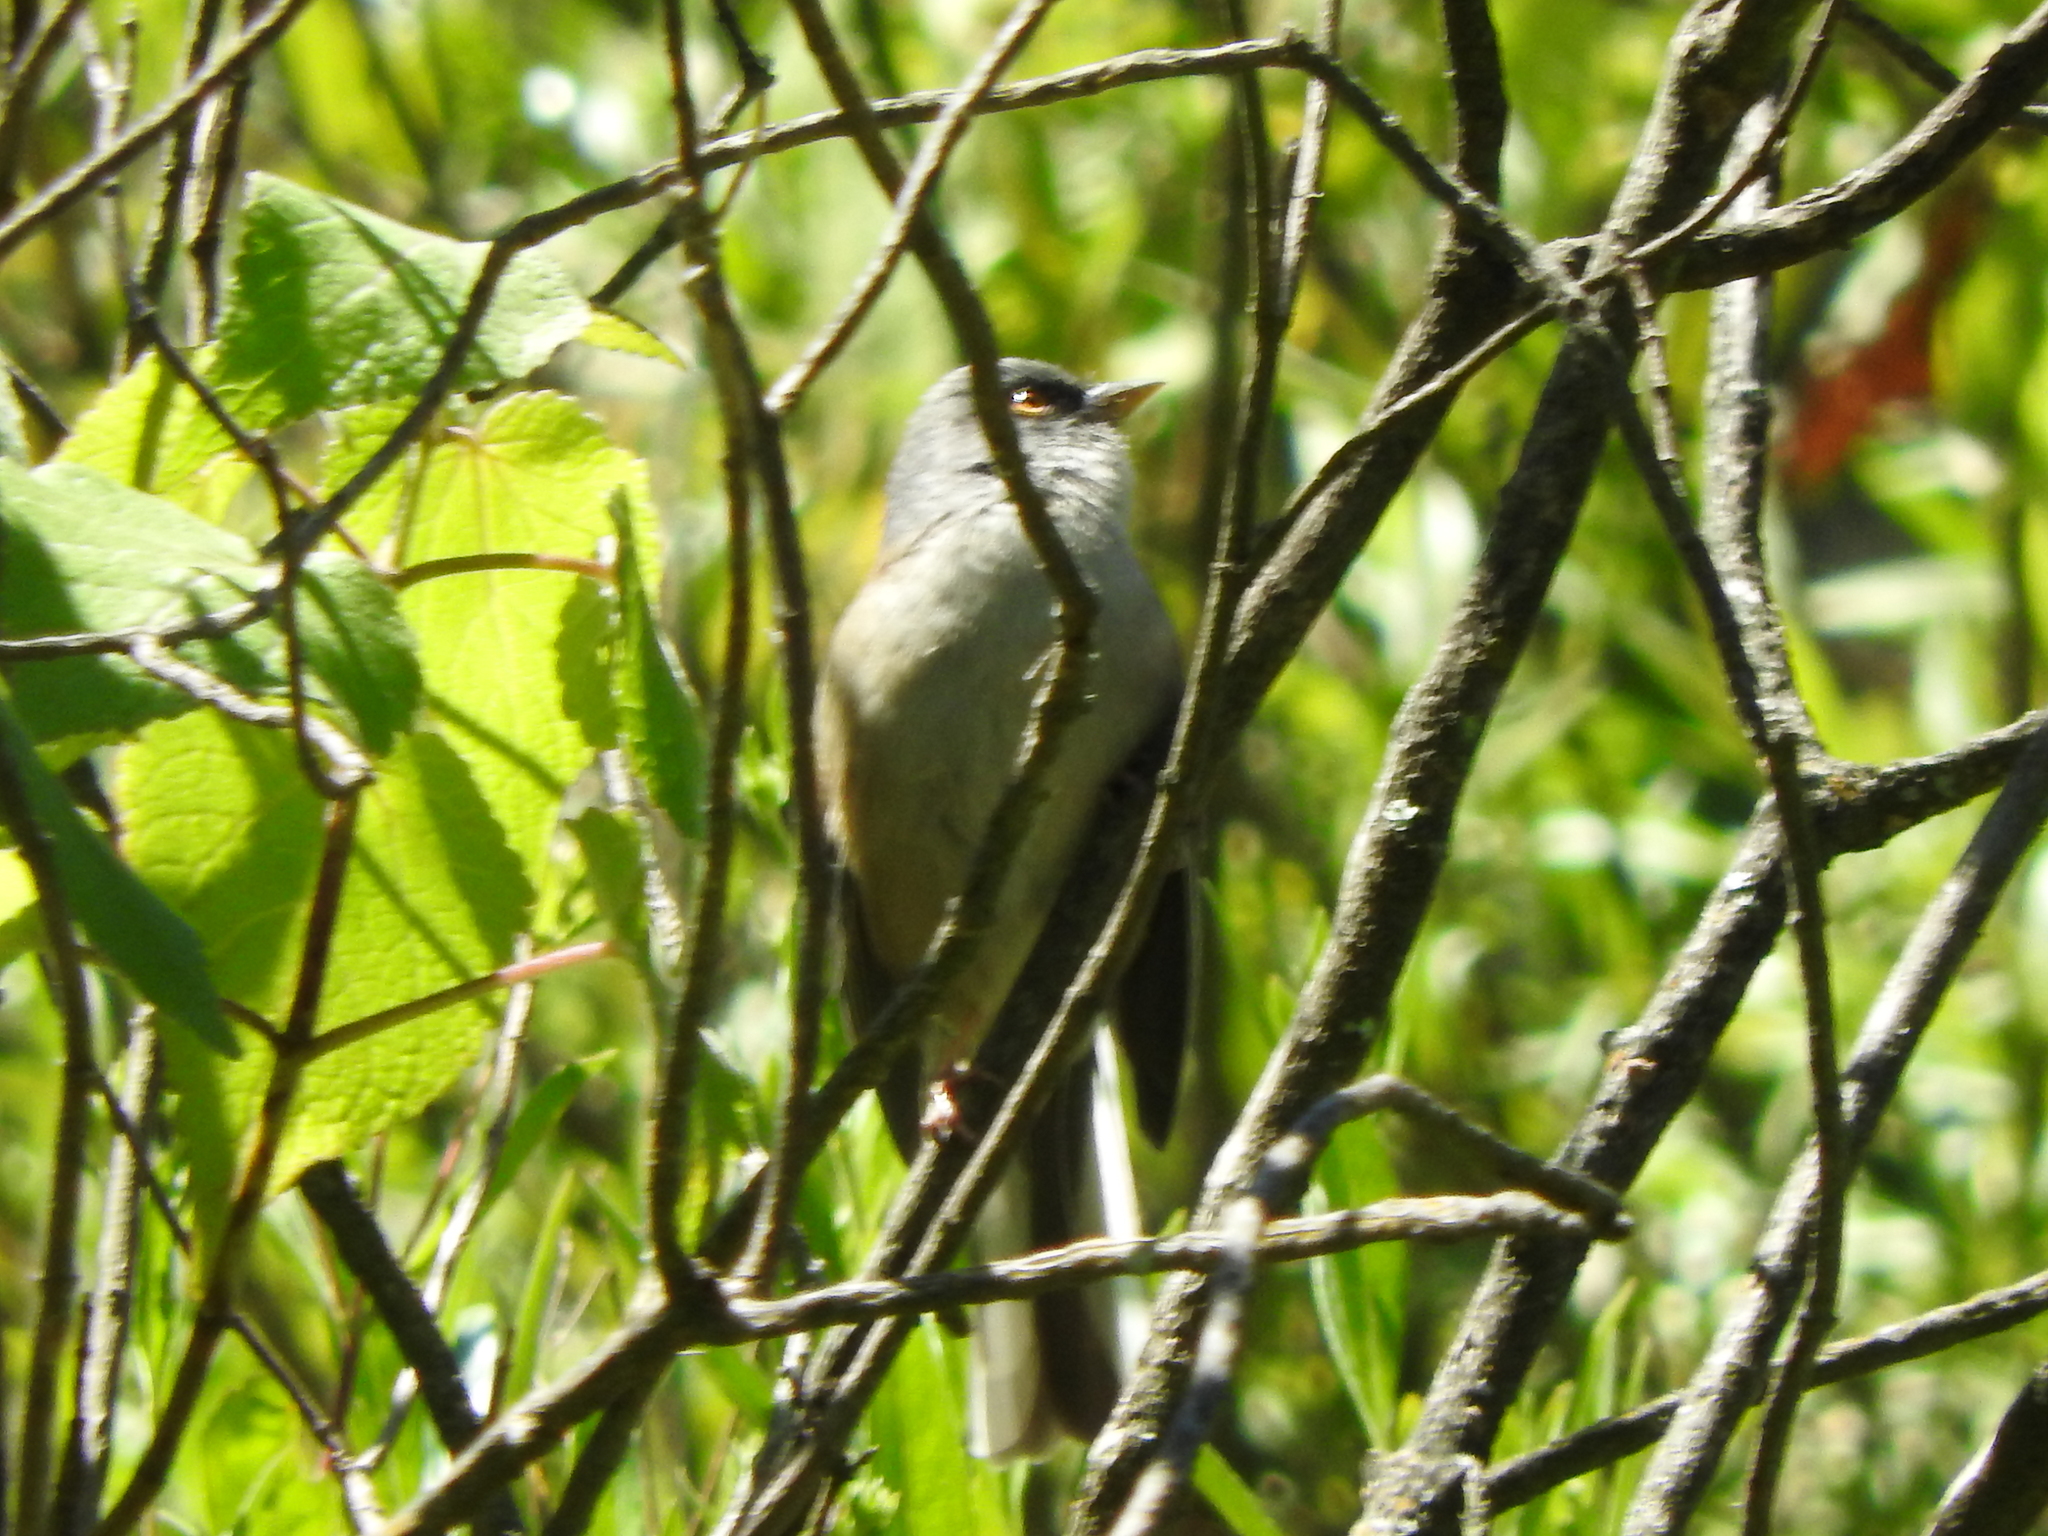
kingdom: Animalia
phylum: Chordata
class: Aves
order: Passeriformes
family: Passerellidae
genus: Junco
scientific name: Junco phaeonotus
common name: Yellow-eyed junco
